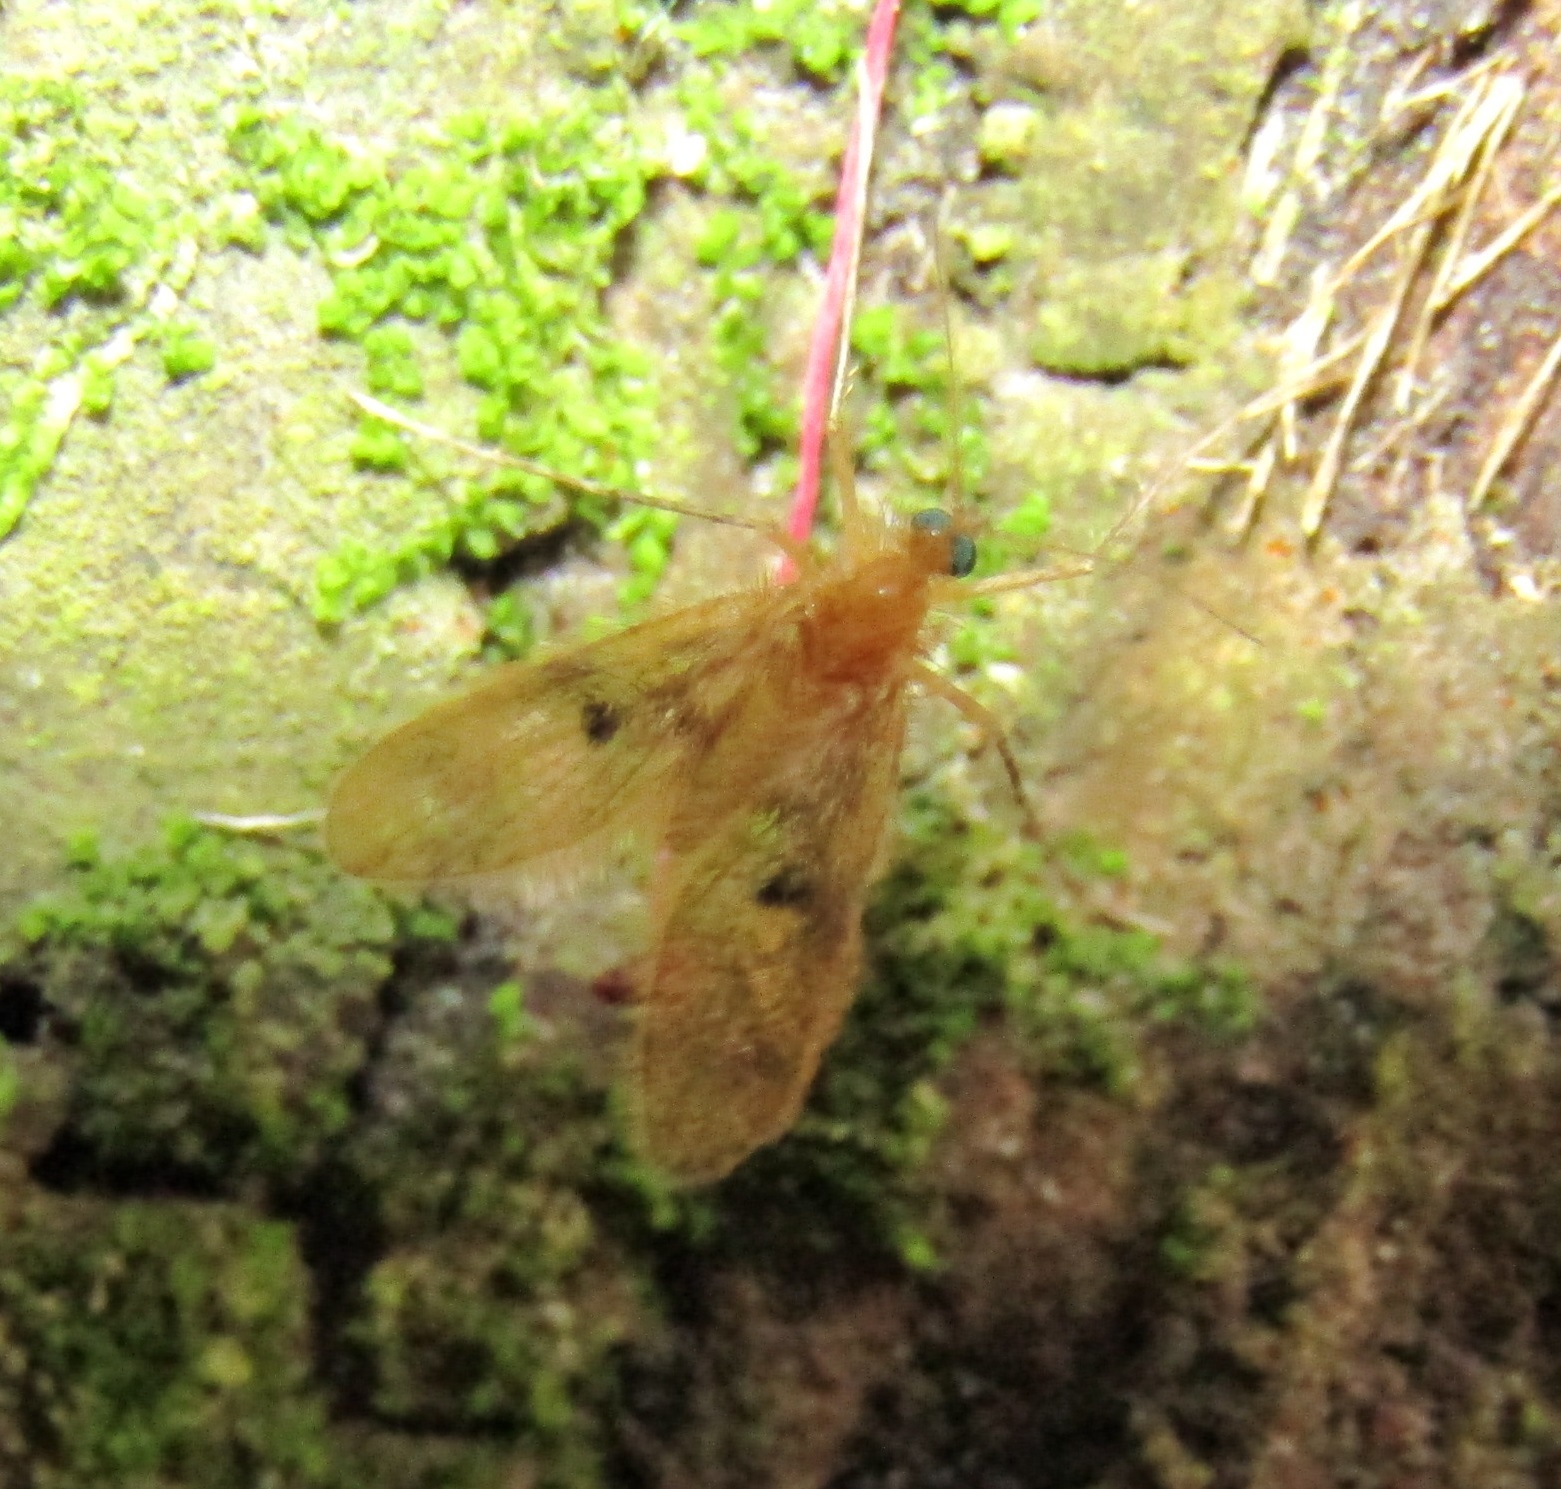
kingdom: Animalia
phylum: Arthropoda
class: Insecta
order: Diptera
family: Psychodidae
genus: Notofairchildia
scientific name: Notofairchildia zelandiae
